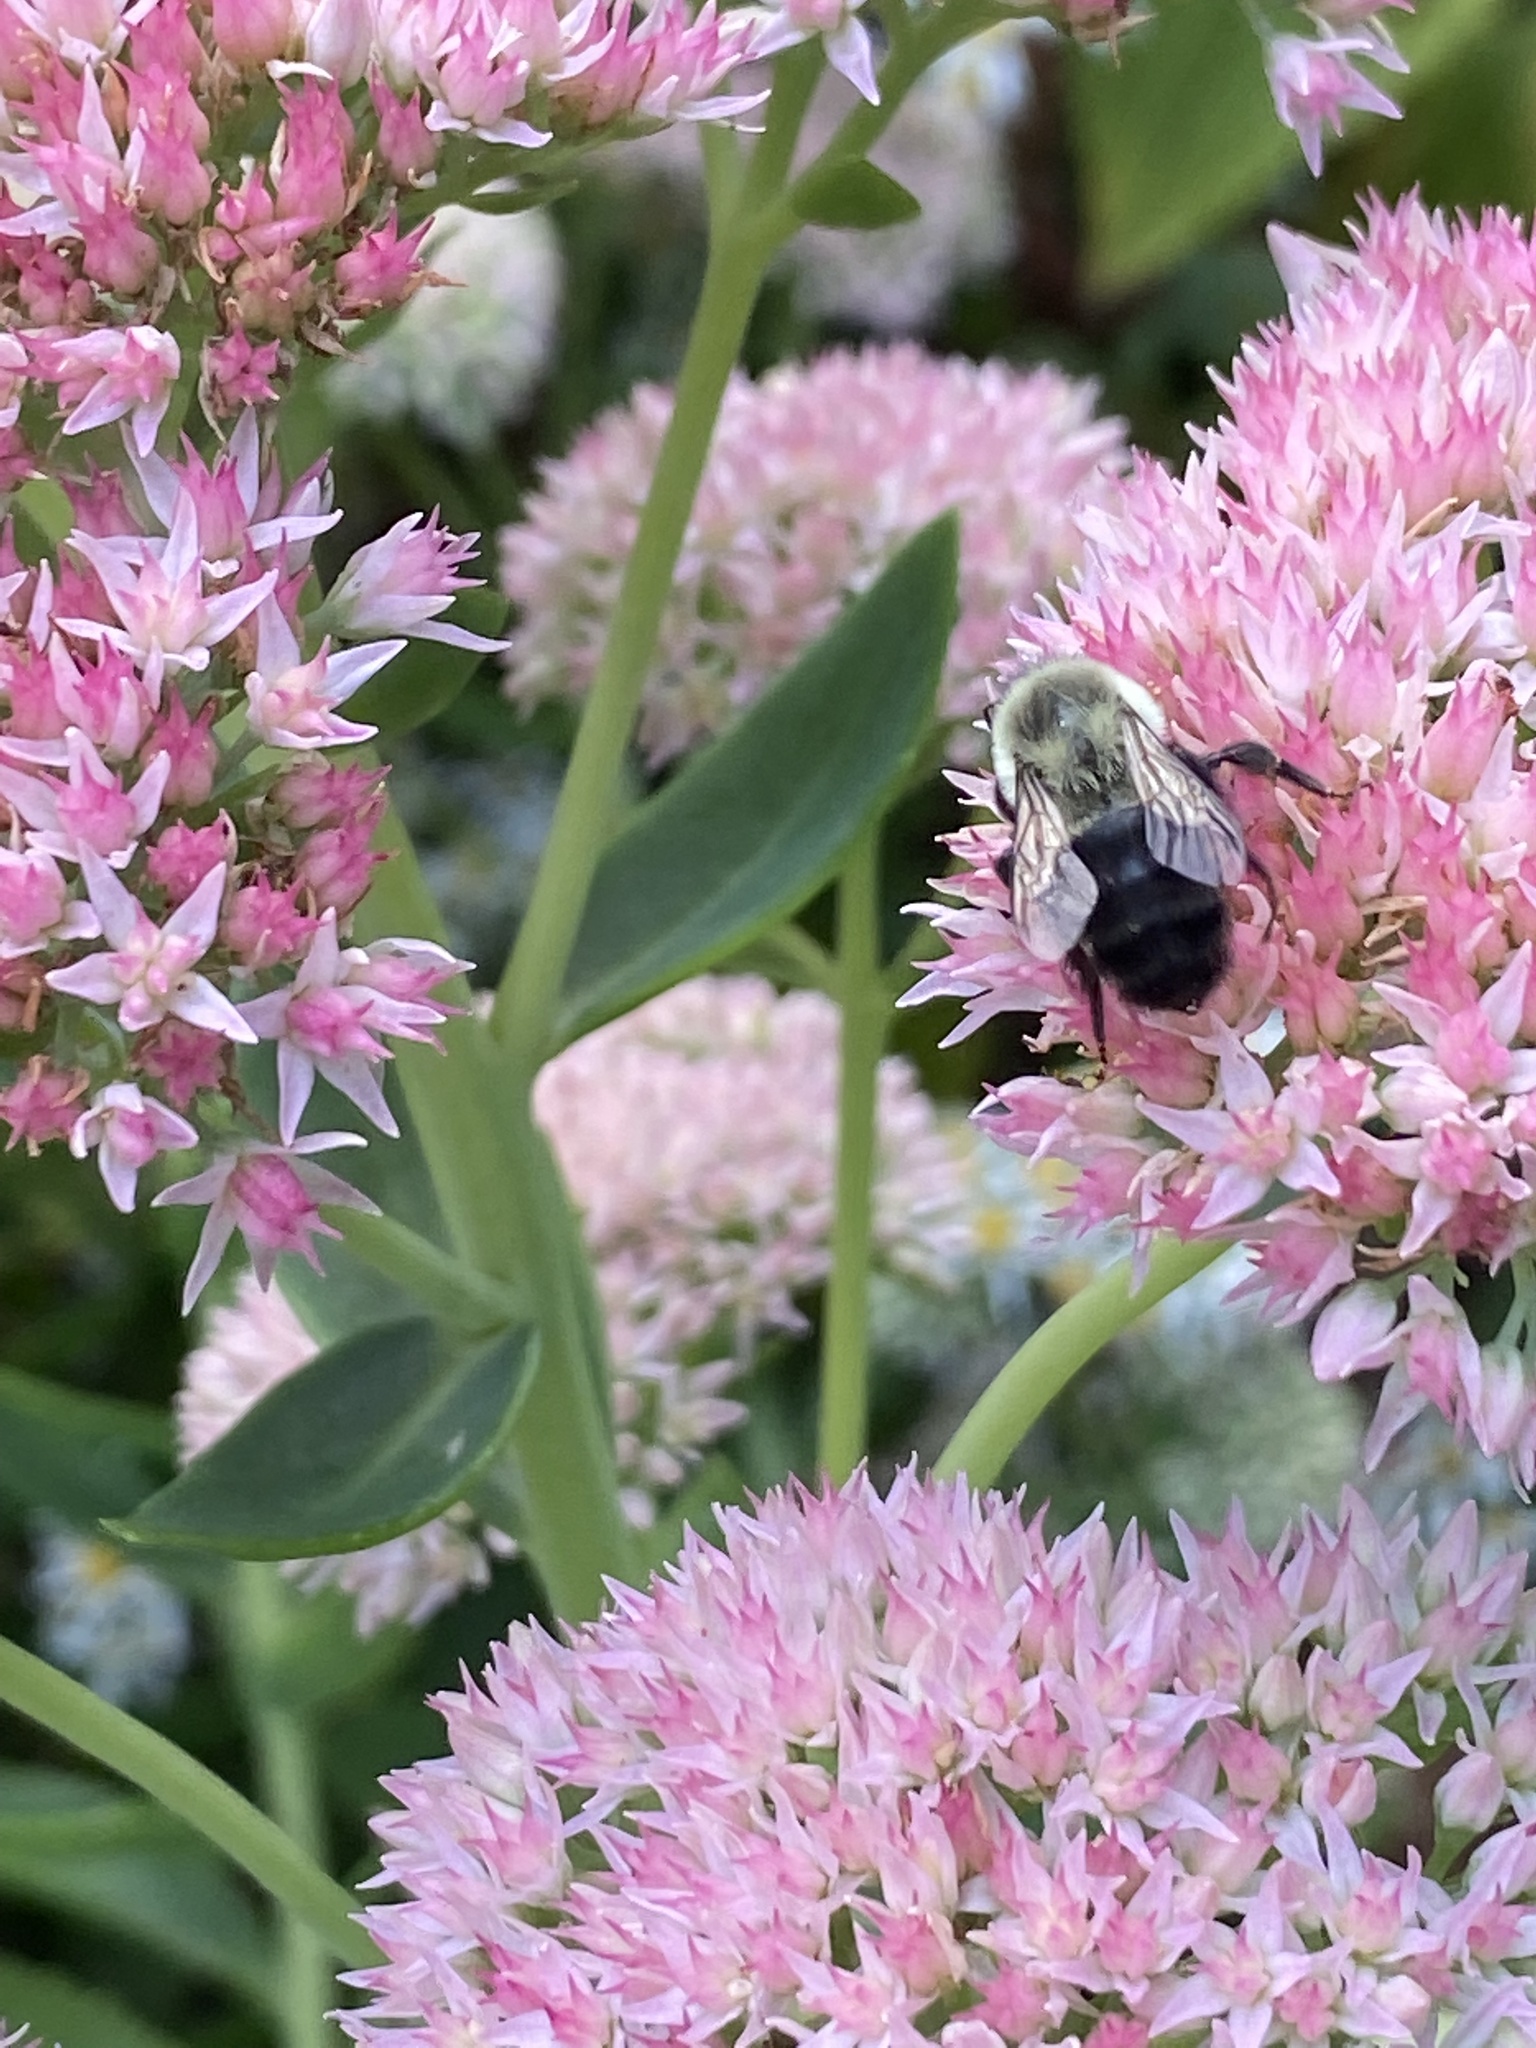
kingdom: Animalia
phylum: Arthropoda
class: Insecta
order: Hymenoptera
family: Apidae
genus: Bombus
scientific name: Bombus impatiens
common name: Common eastern bumble bee
